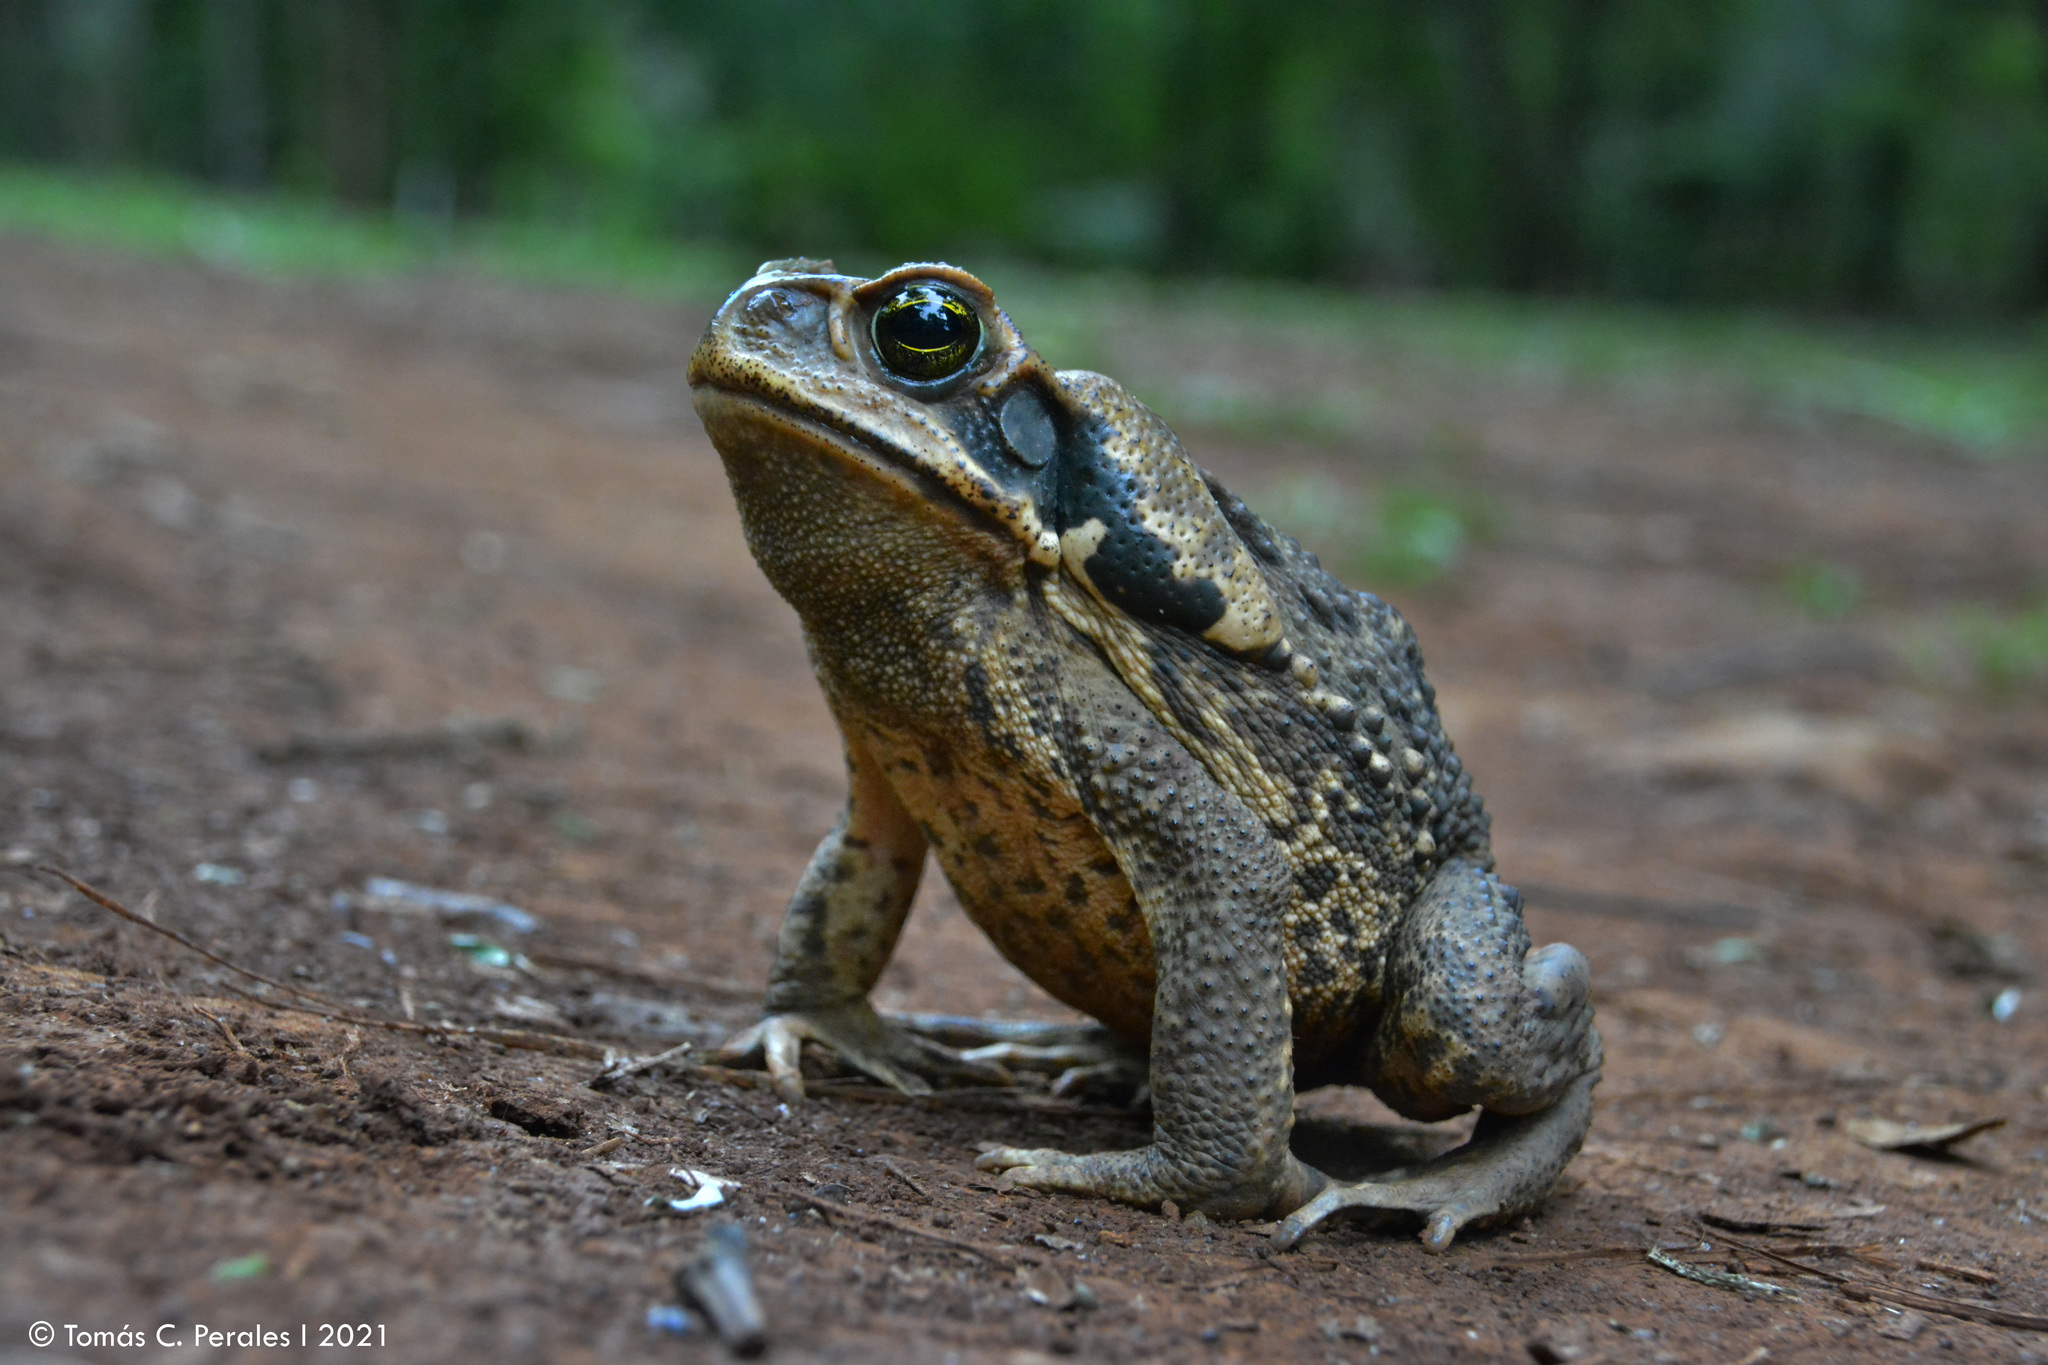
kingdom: Animalia
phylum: Chordata
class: Amphibia
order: Anura
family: Bufonidae
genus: Rhinella
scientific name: Rhinella diptycha
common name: Cope's toad
